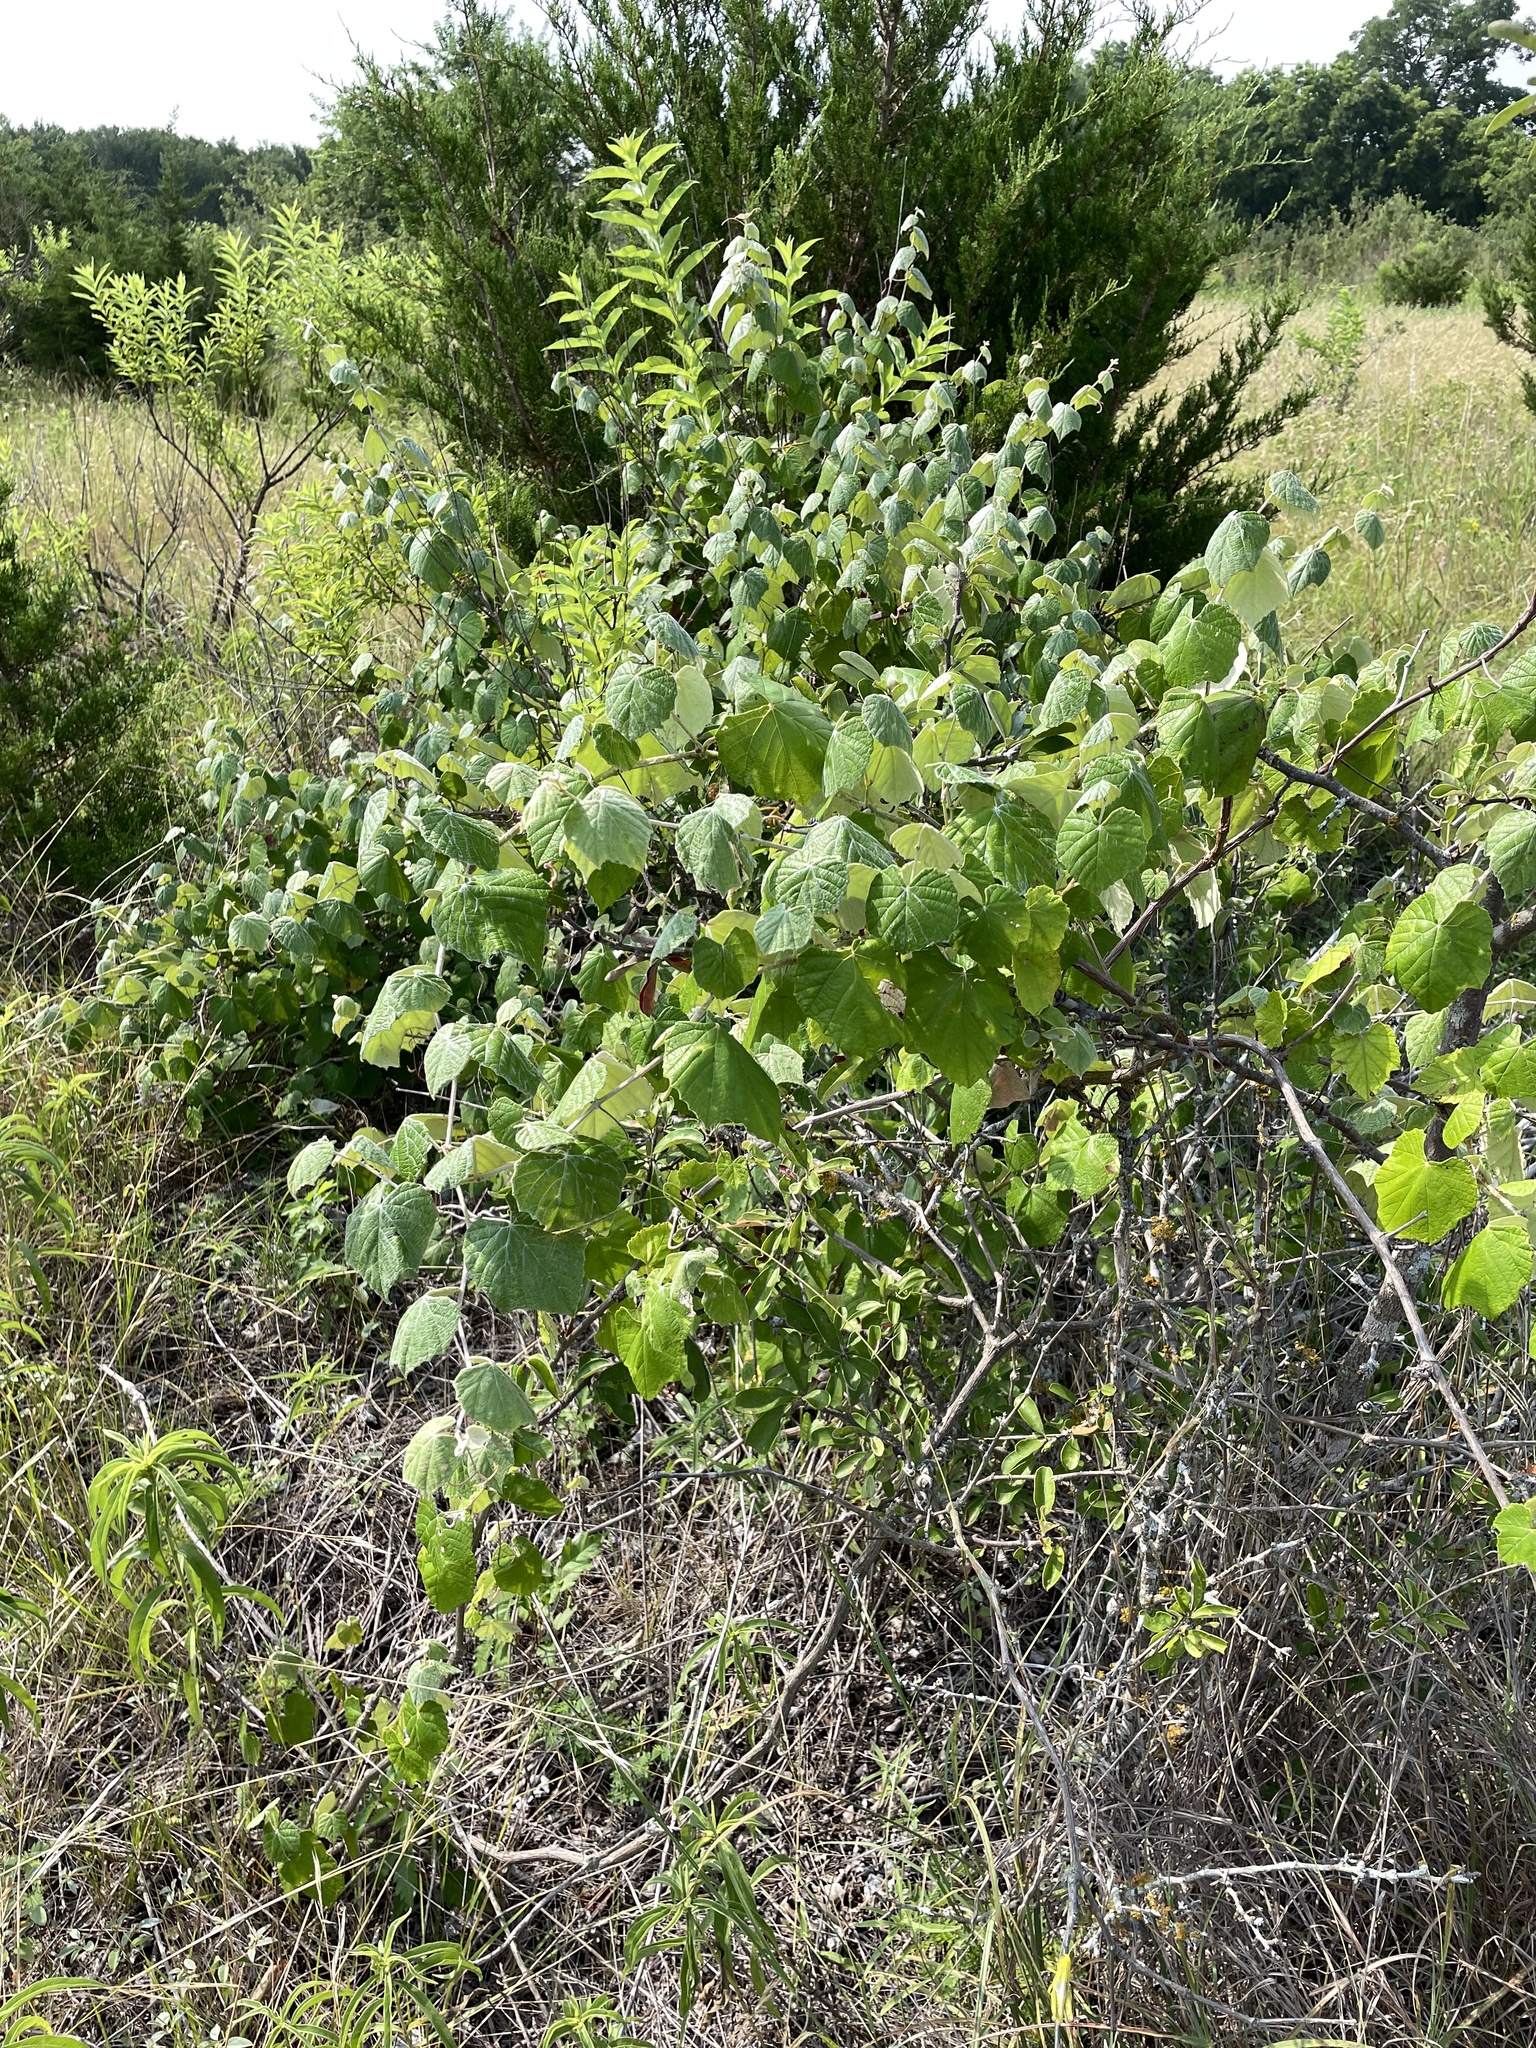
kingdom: Plantae
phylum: Tracheophyta
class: Magnoliopsida
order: Vitales
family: Vitaceae
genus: Vitis
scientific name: Vitis mustangensis
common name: Mustang grape
